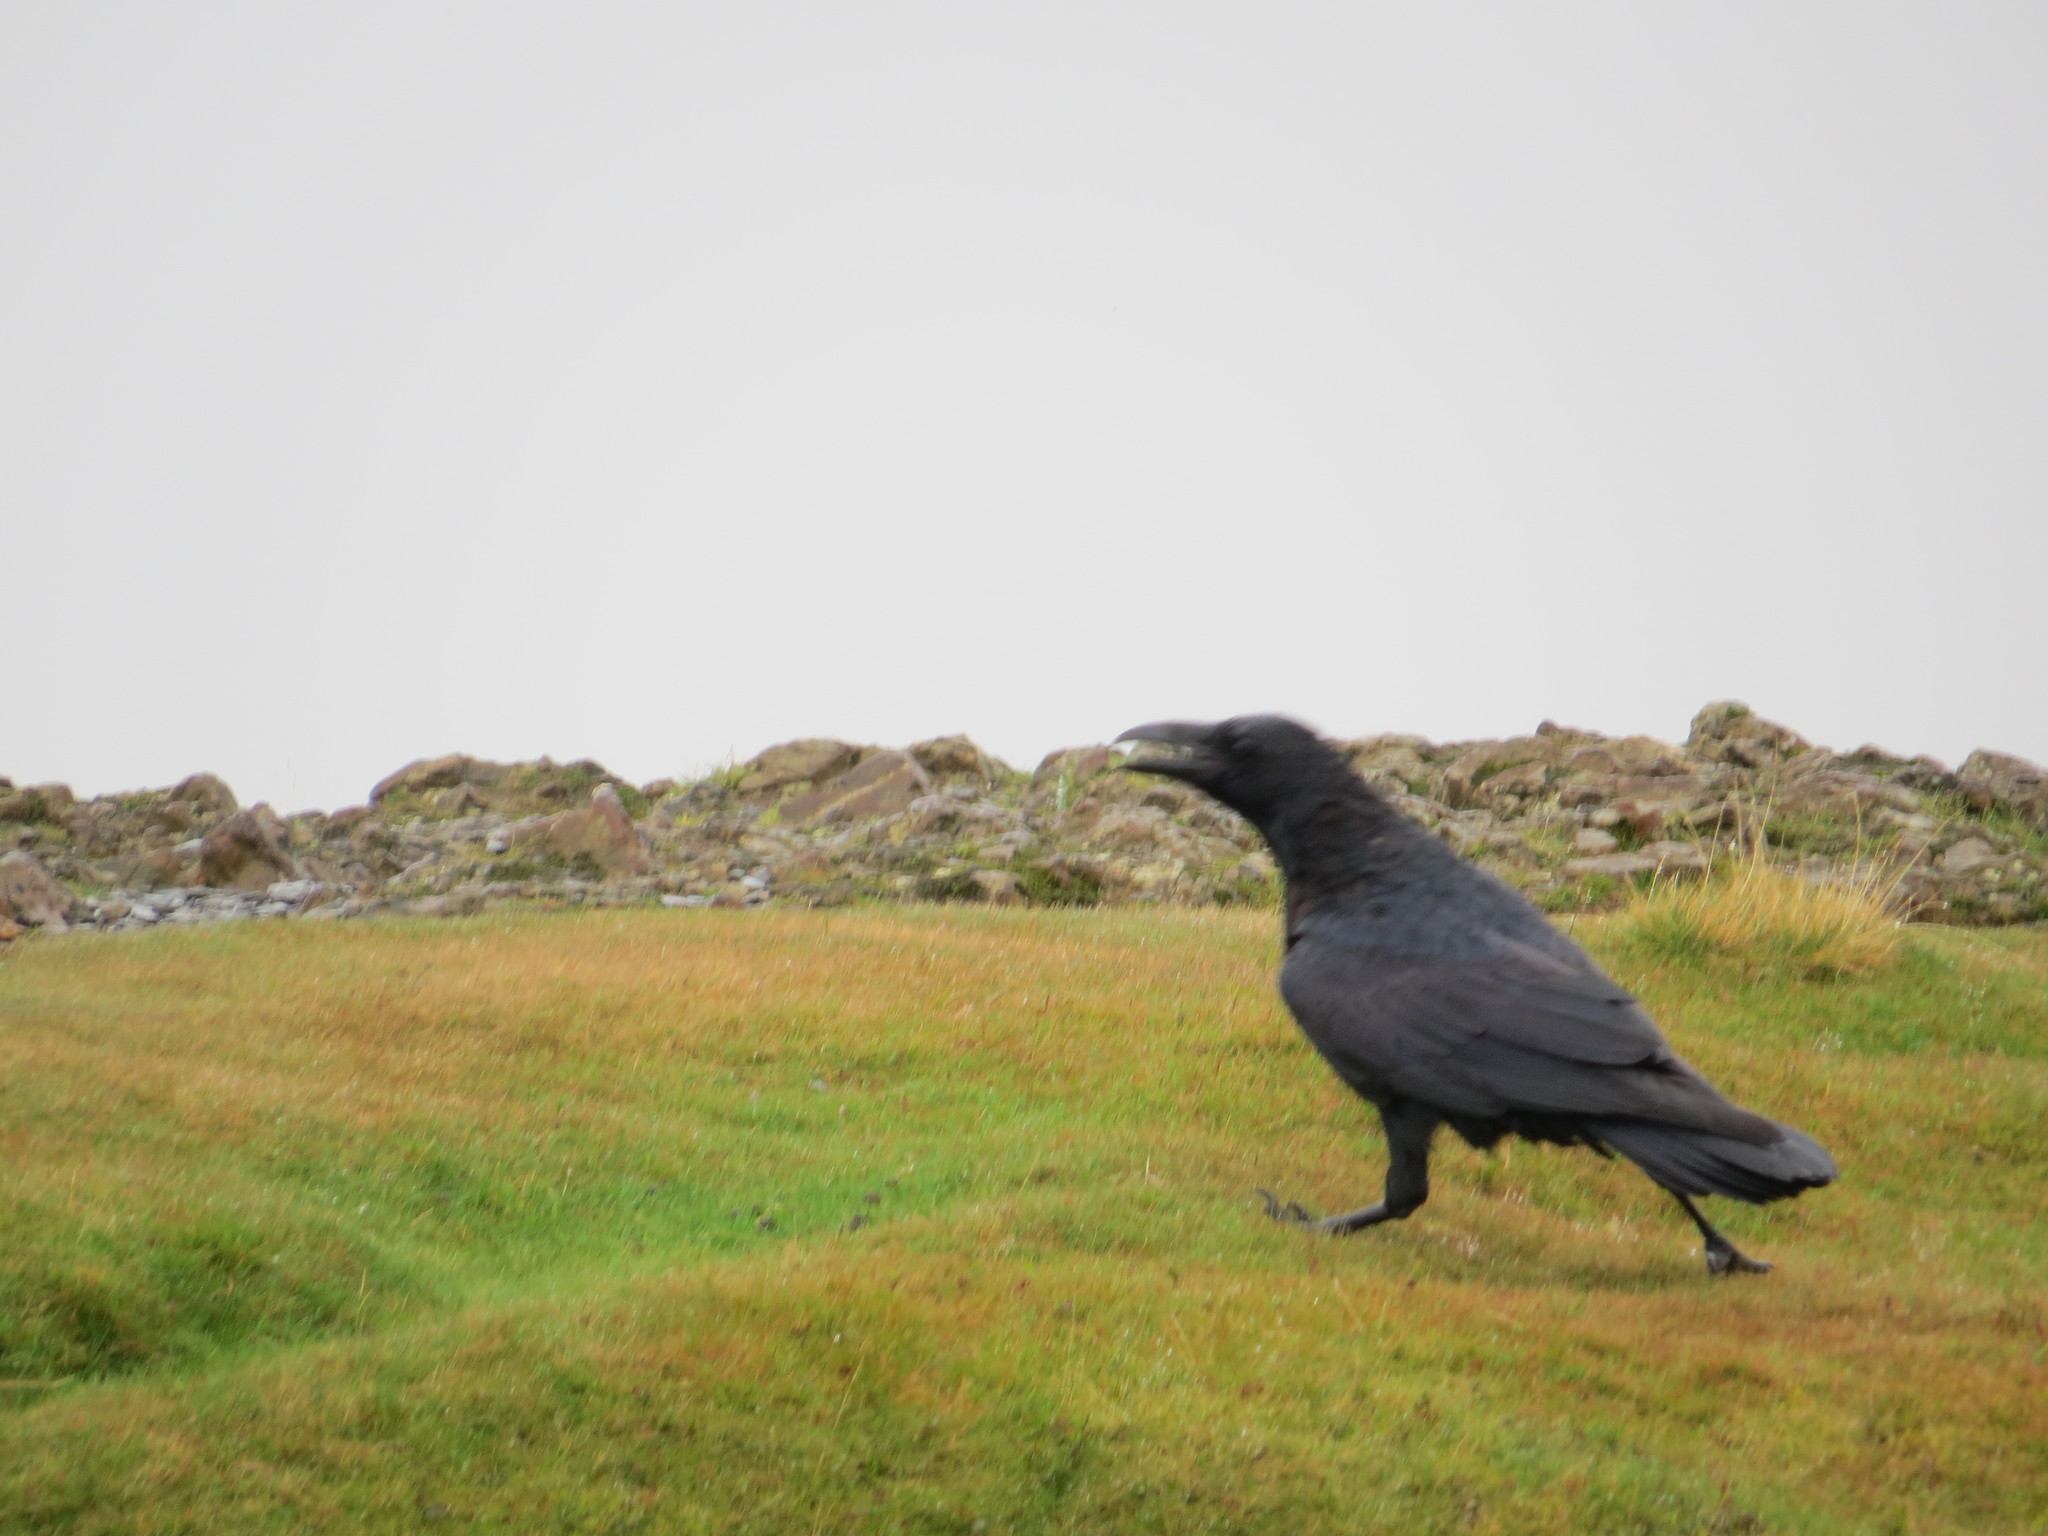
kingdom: Animalia
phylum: Chordata
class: Aves
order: Passeriformes
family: Corvidae
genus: Corvus
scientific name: Corvus corax
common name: Common raven
